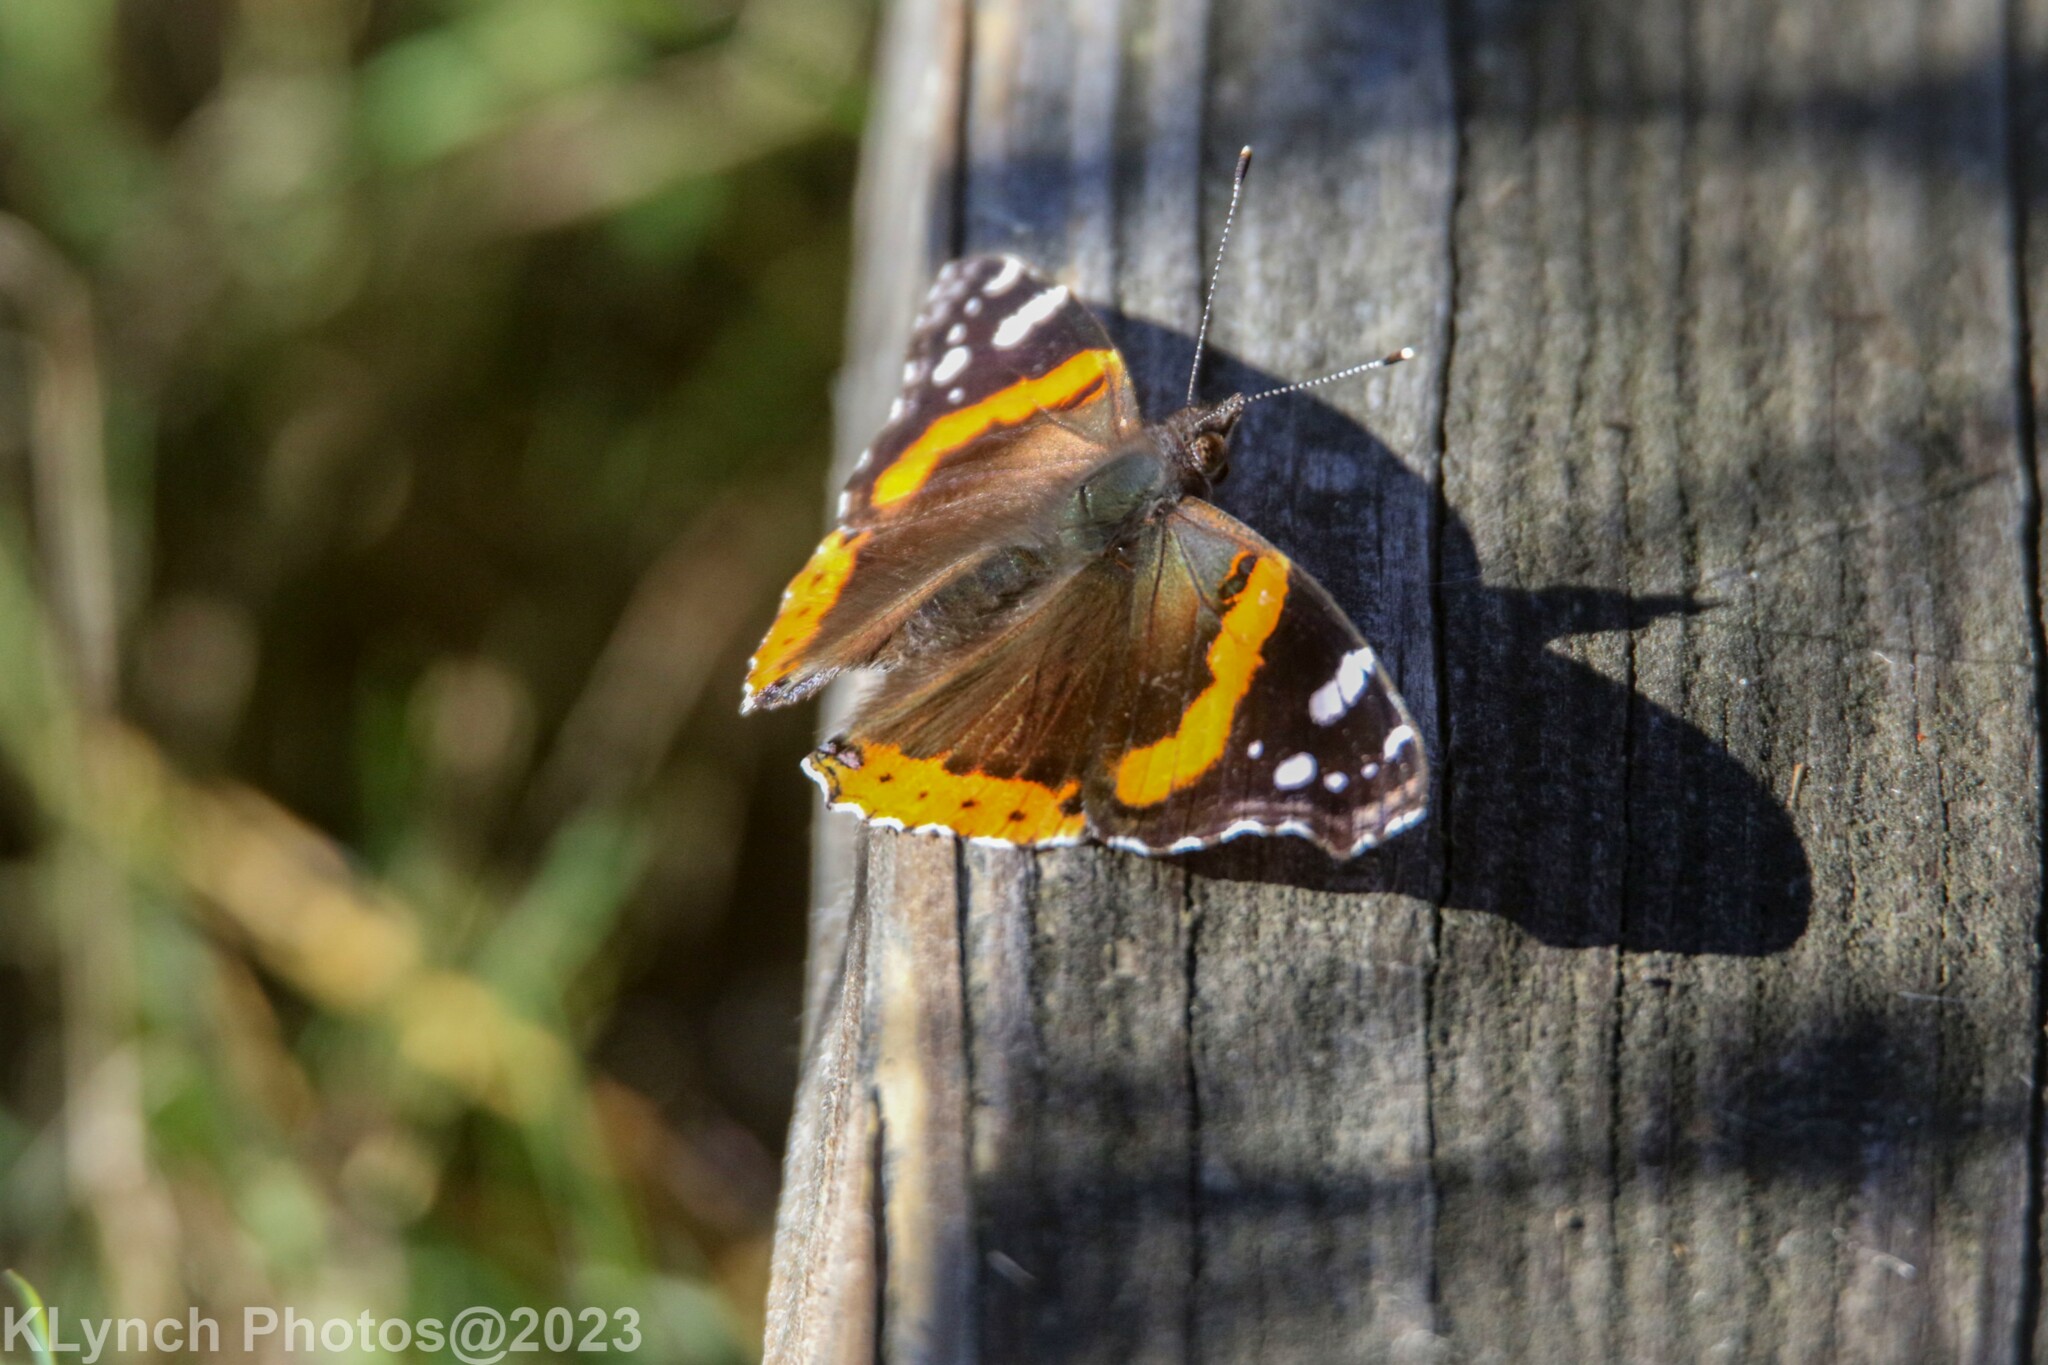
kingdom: Animalia
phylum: Arthropoda
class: Insecta
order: Lepidoptera
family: Nymphalidae
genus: Vanessa
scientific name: Vanessa atalanta
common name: Red admiral
